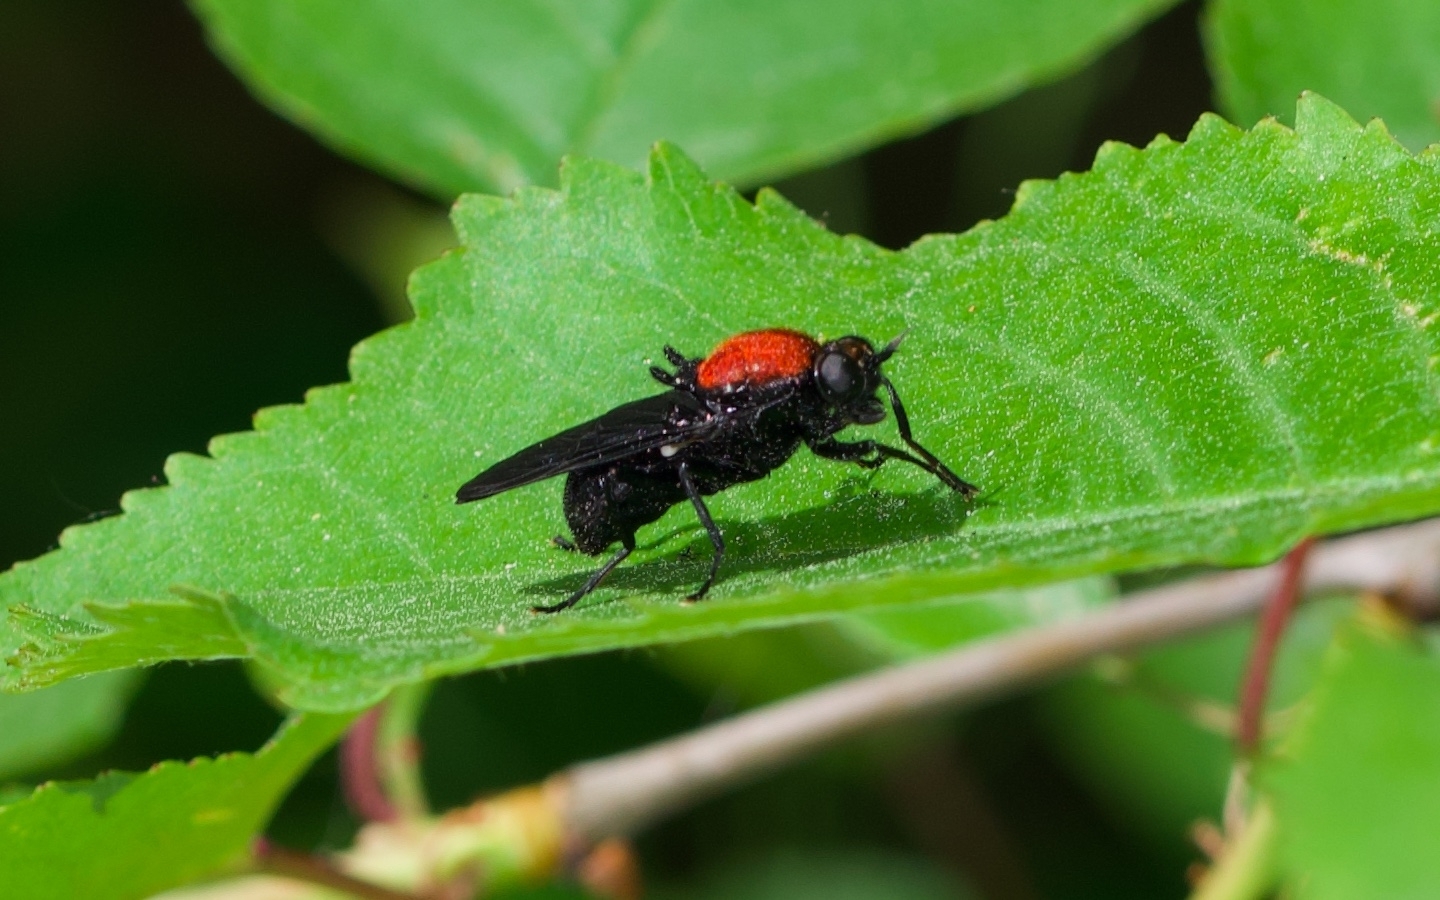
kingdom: Animalia
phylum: Arthropoda
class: Insecta
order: Diptera
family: Stratiomyidae
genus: Clitellaria
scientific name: Clitellaria ephippium
